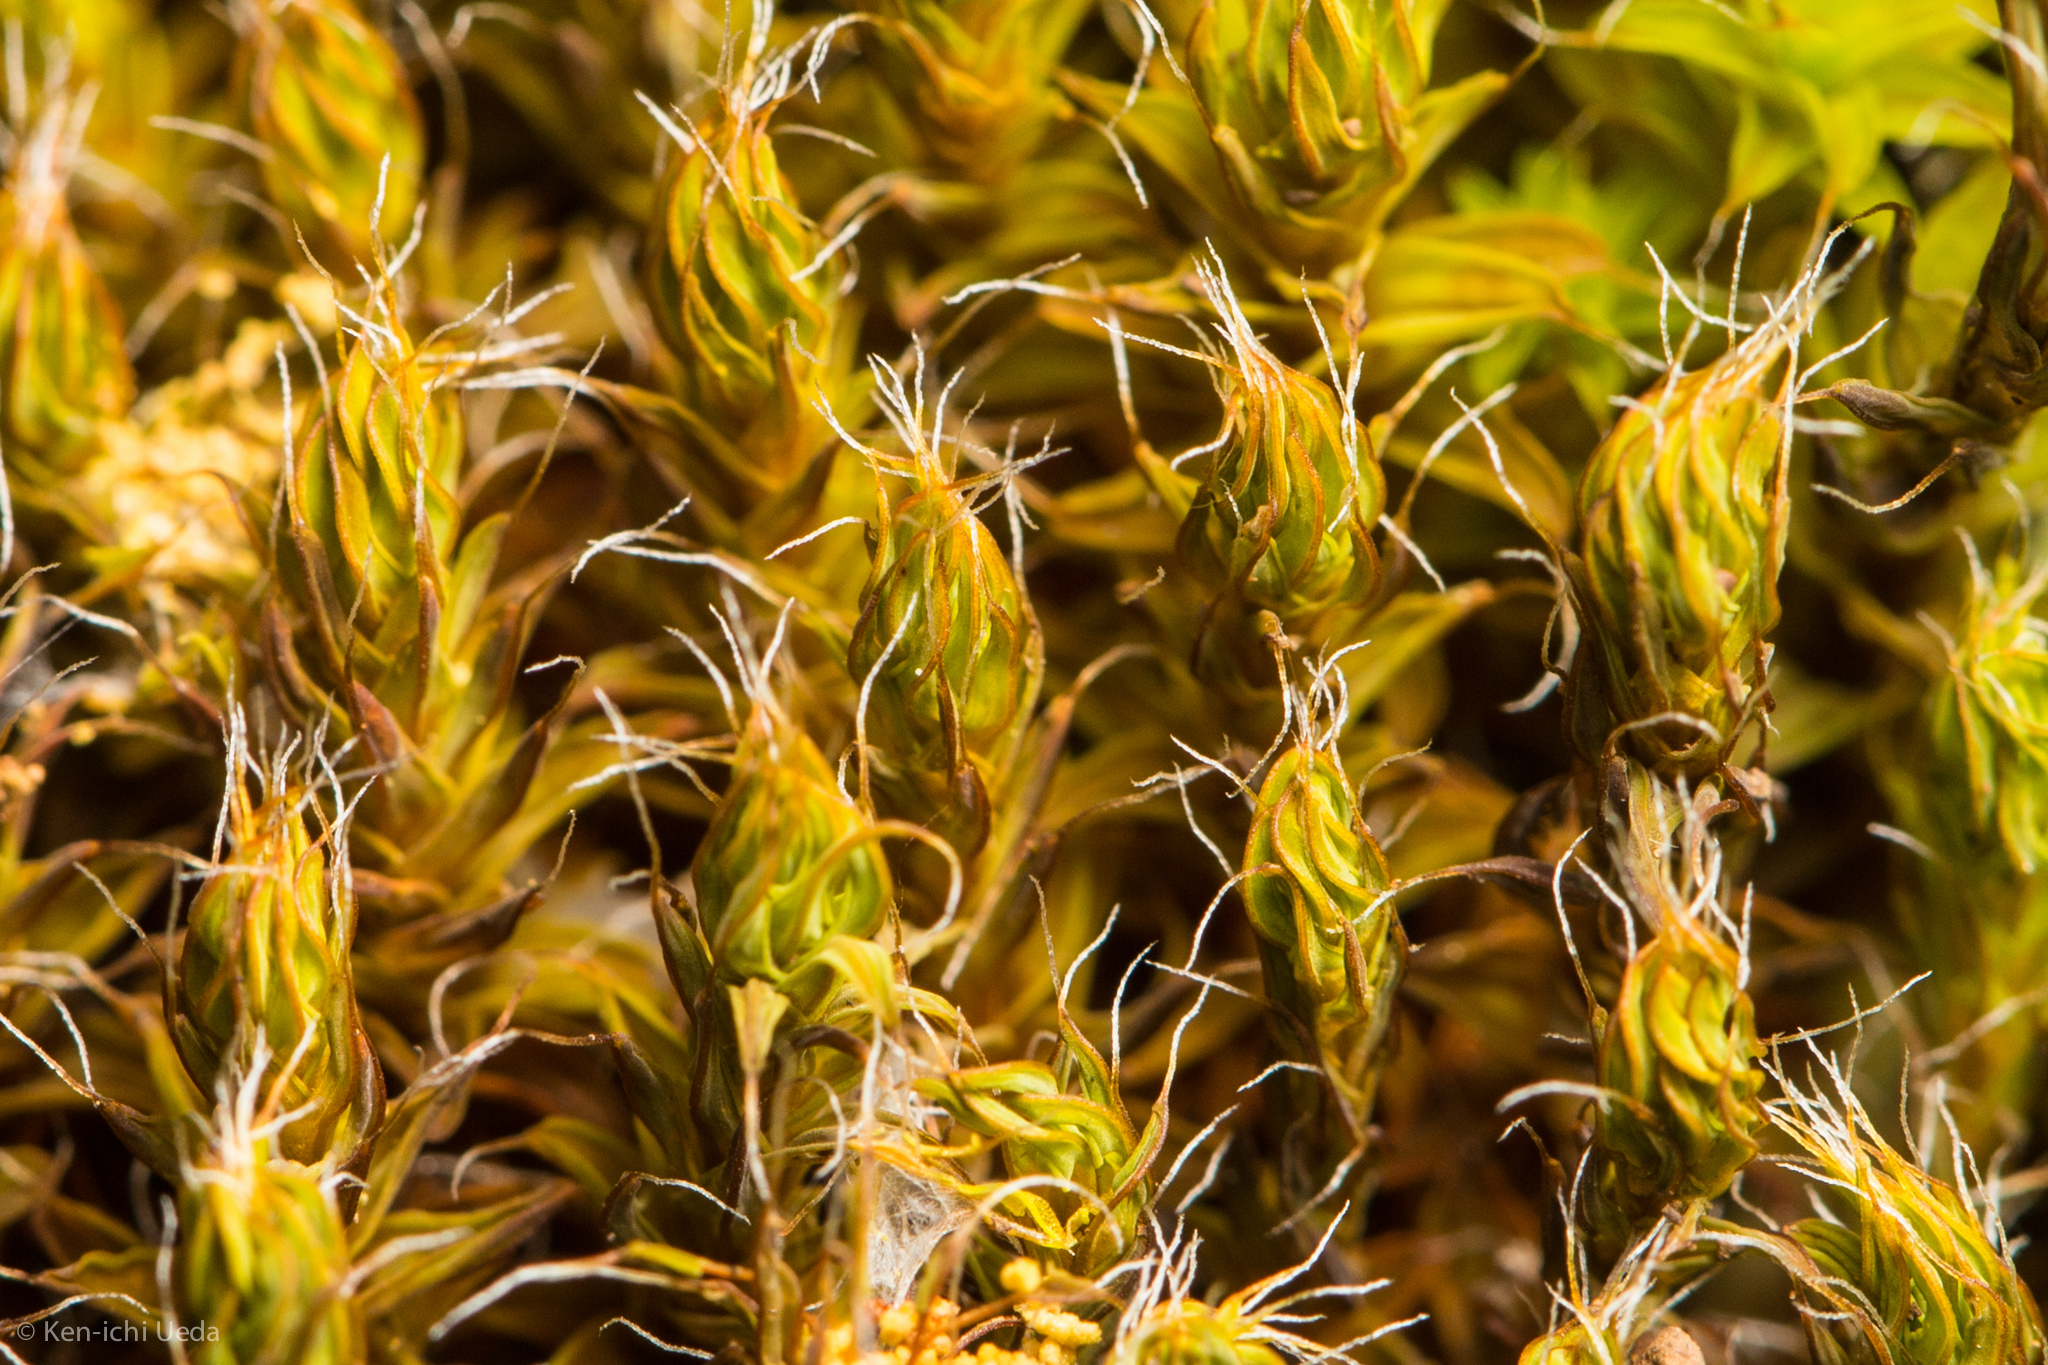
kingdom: Plantae
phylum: Bryophyta
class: Bryopsida
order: Pottiales
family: Pottiaceae
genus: Syntrichia
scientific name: Syntrichia ruralis
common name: Sidewalk screw moss
